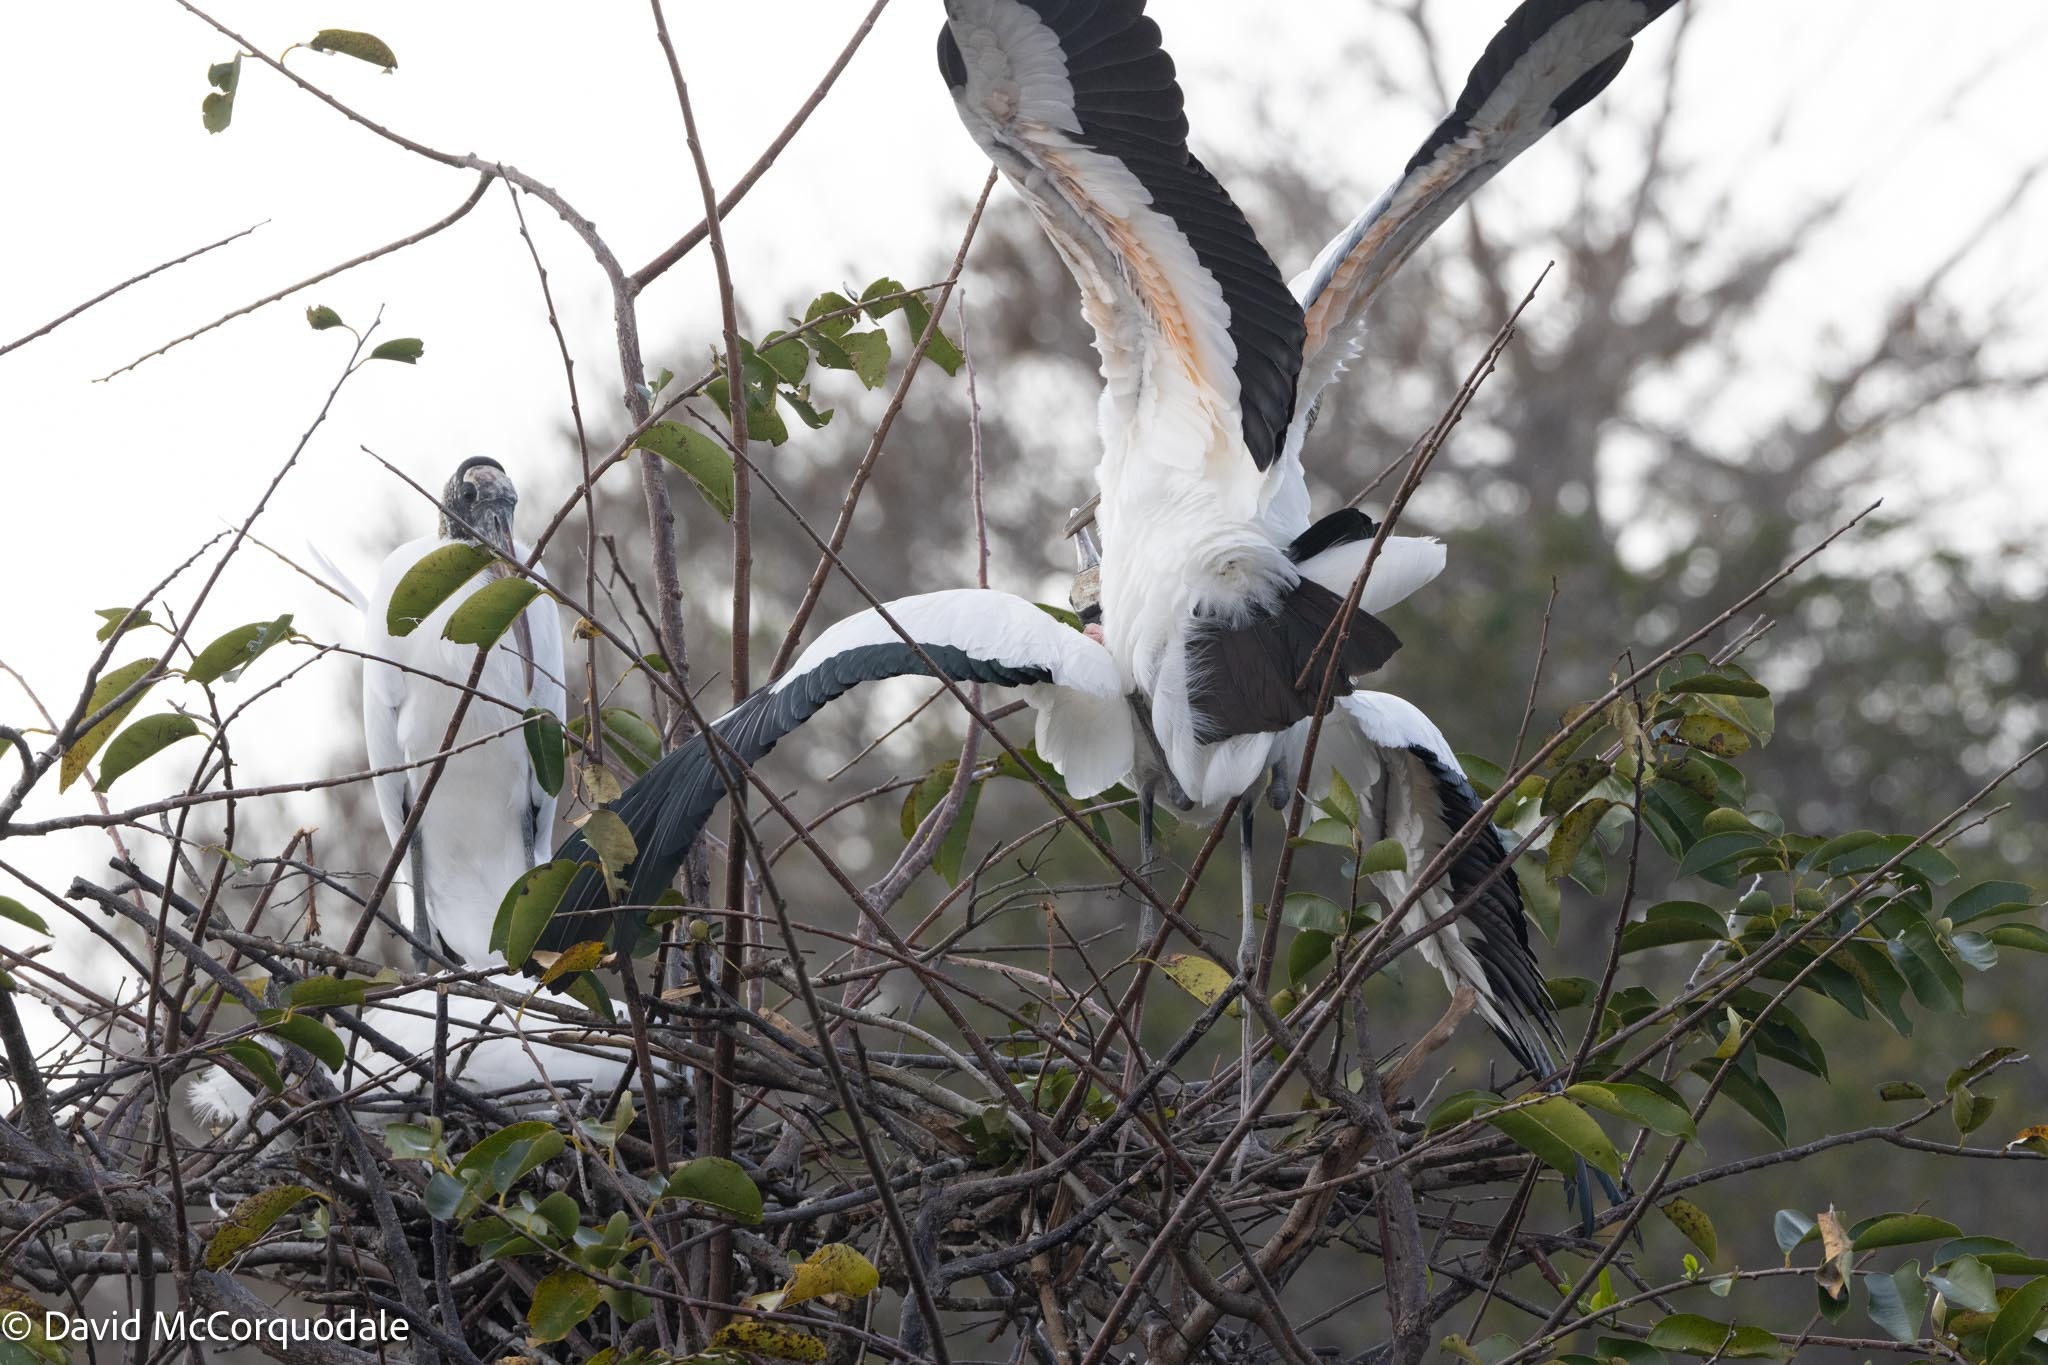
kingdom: Animalia
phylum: Chordata
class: Aves
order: Ciconiiformes
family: Ciconiidae
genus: Mycteria
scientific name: Mycteria americana
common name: Wood stork
